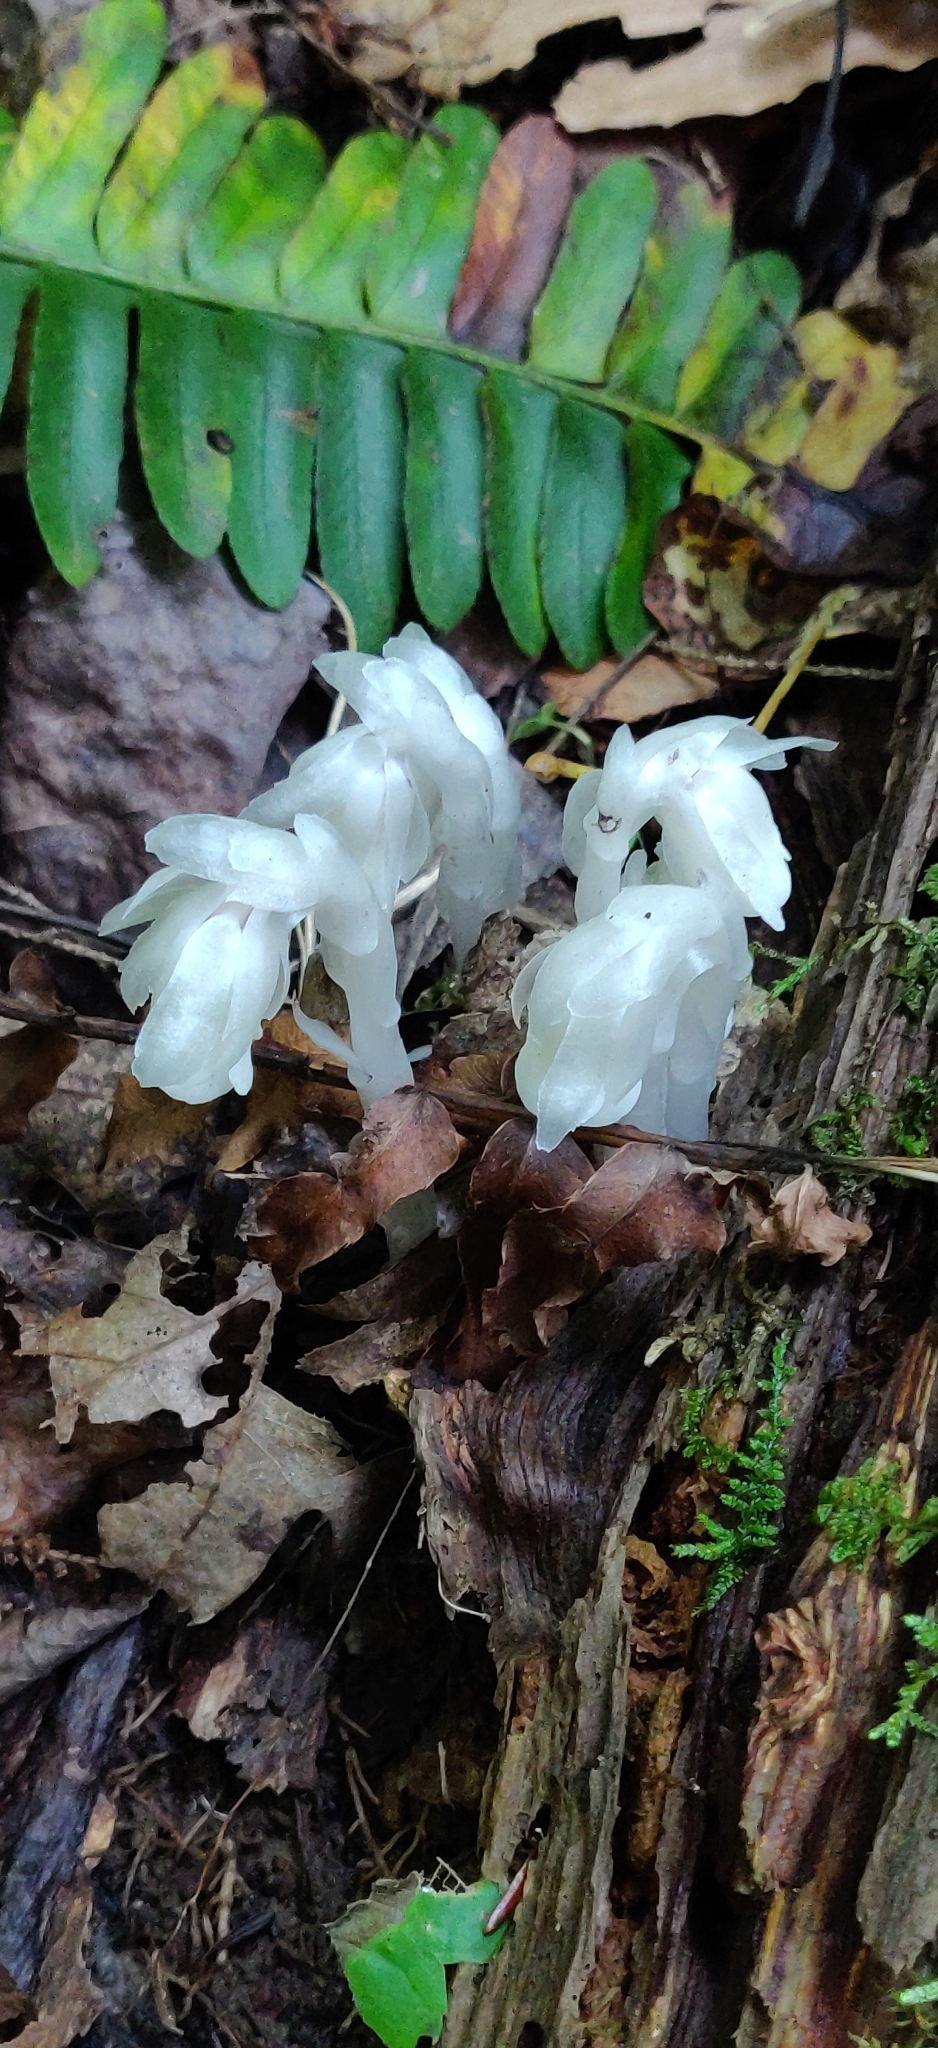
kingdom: Plantae
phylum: Tracheophyta
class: Magnoliopsida
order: Ericales
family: Ericaceae
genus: Monotropa
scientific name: Monotropa uniflora
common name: Convulsion root
